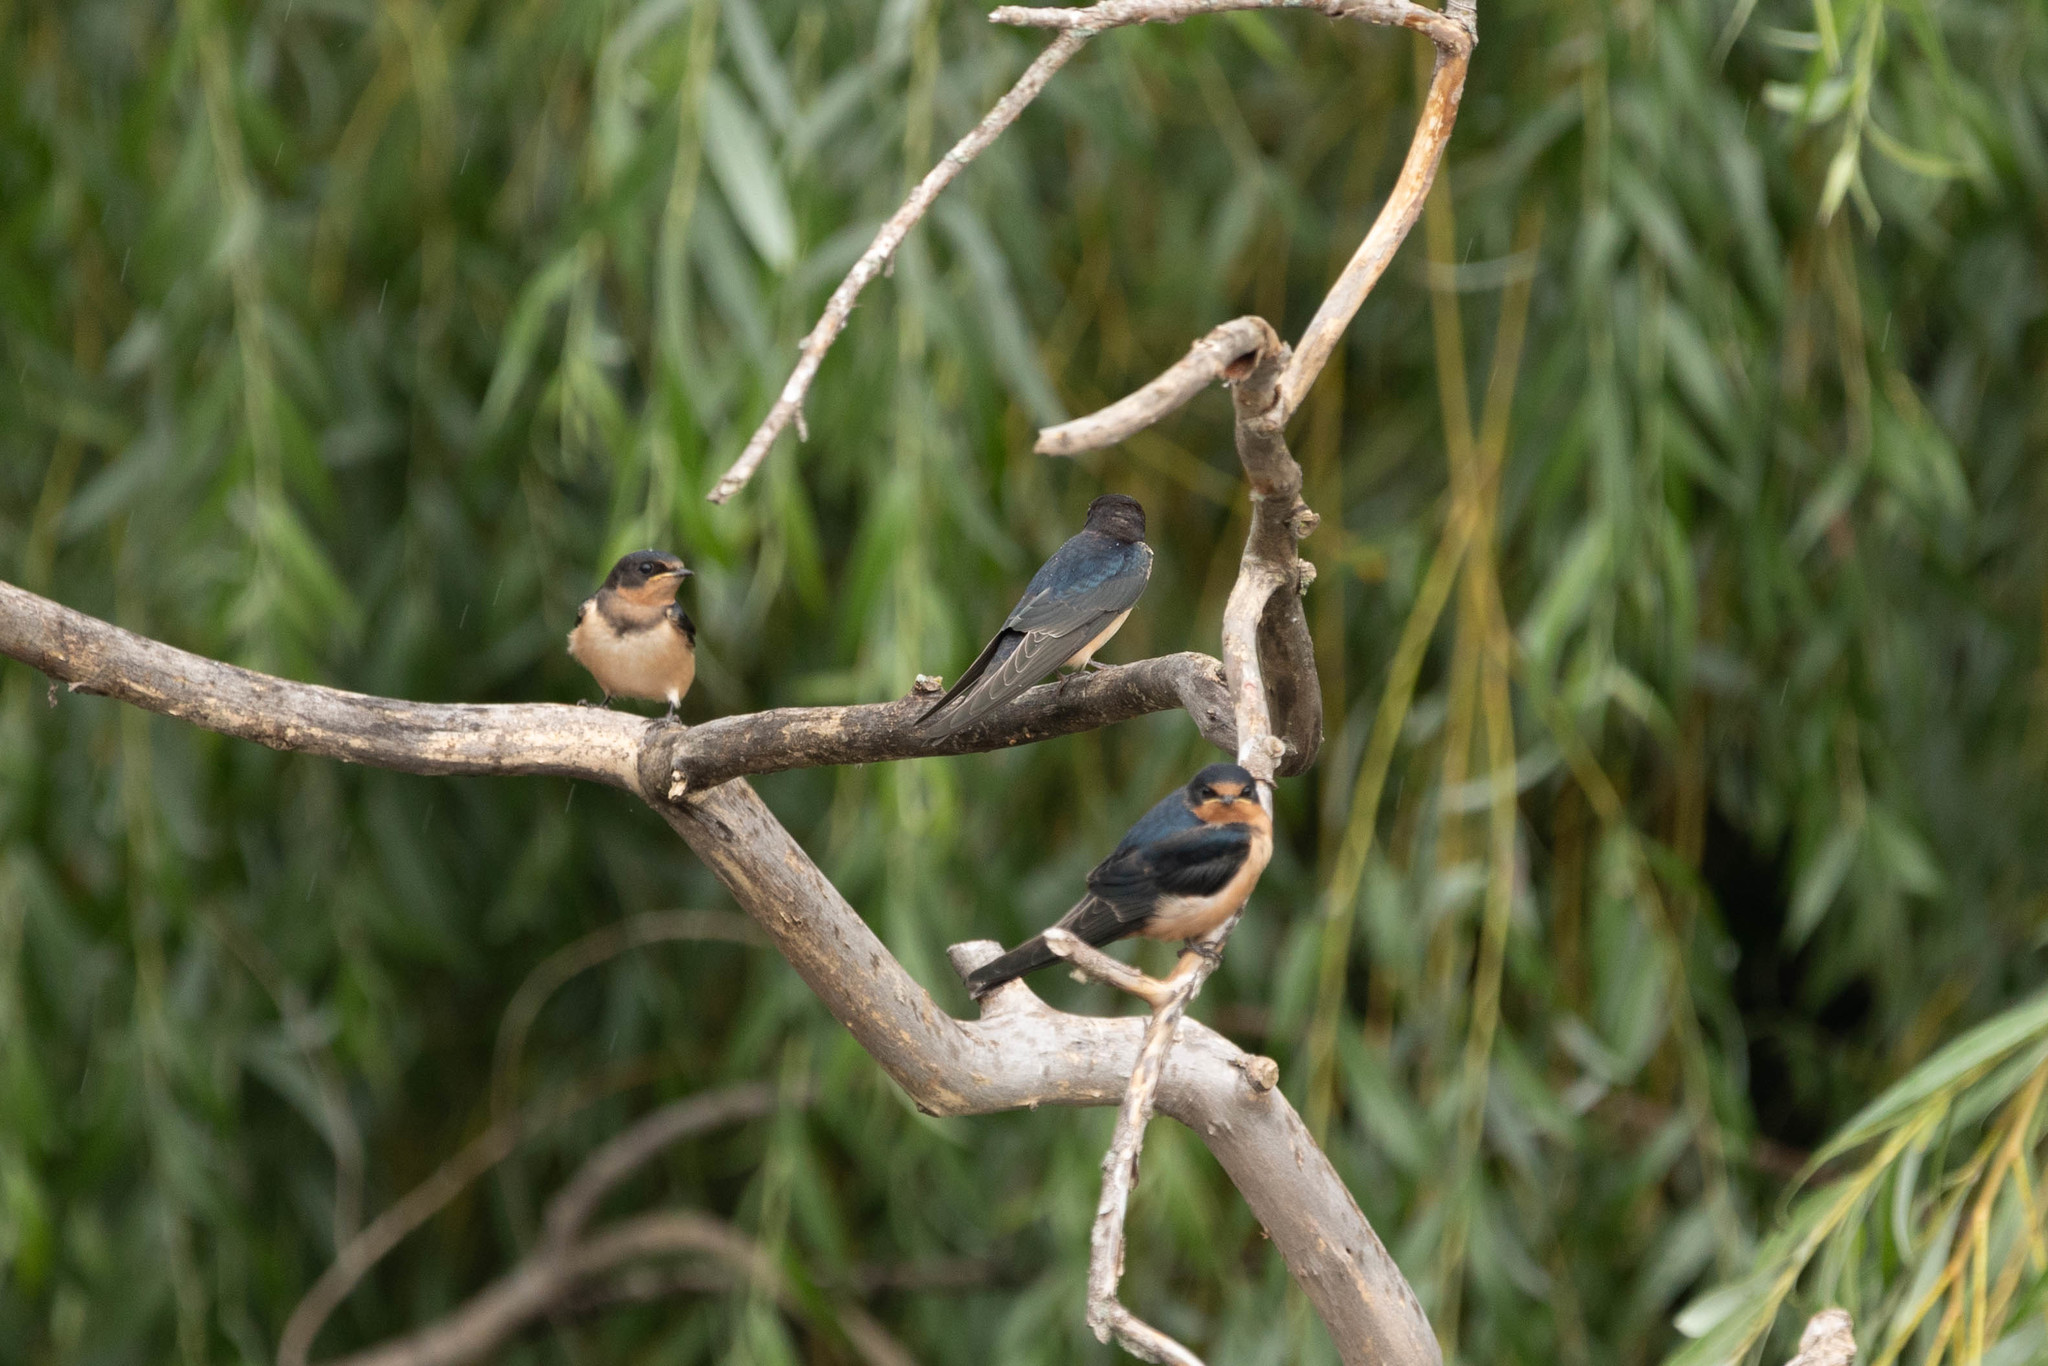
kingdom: Animalia
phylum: Chordata
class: Aves
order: Passeriformes
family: Hirundinidae
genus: Hirundo
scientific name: Hirundo rustica
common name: Barn swallow
